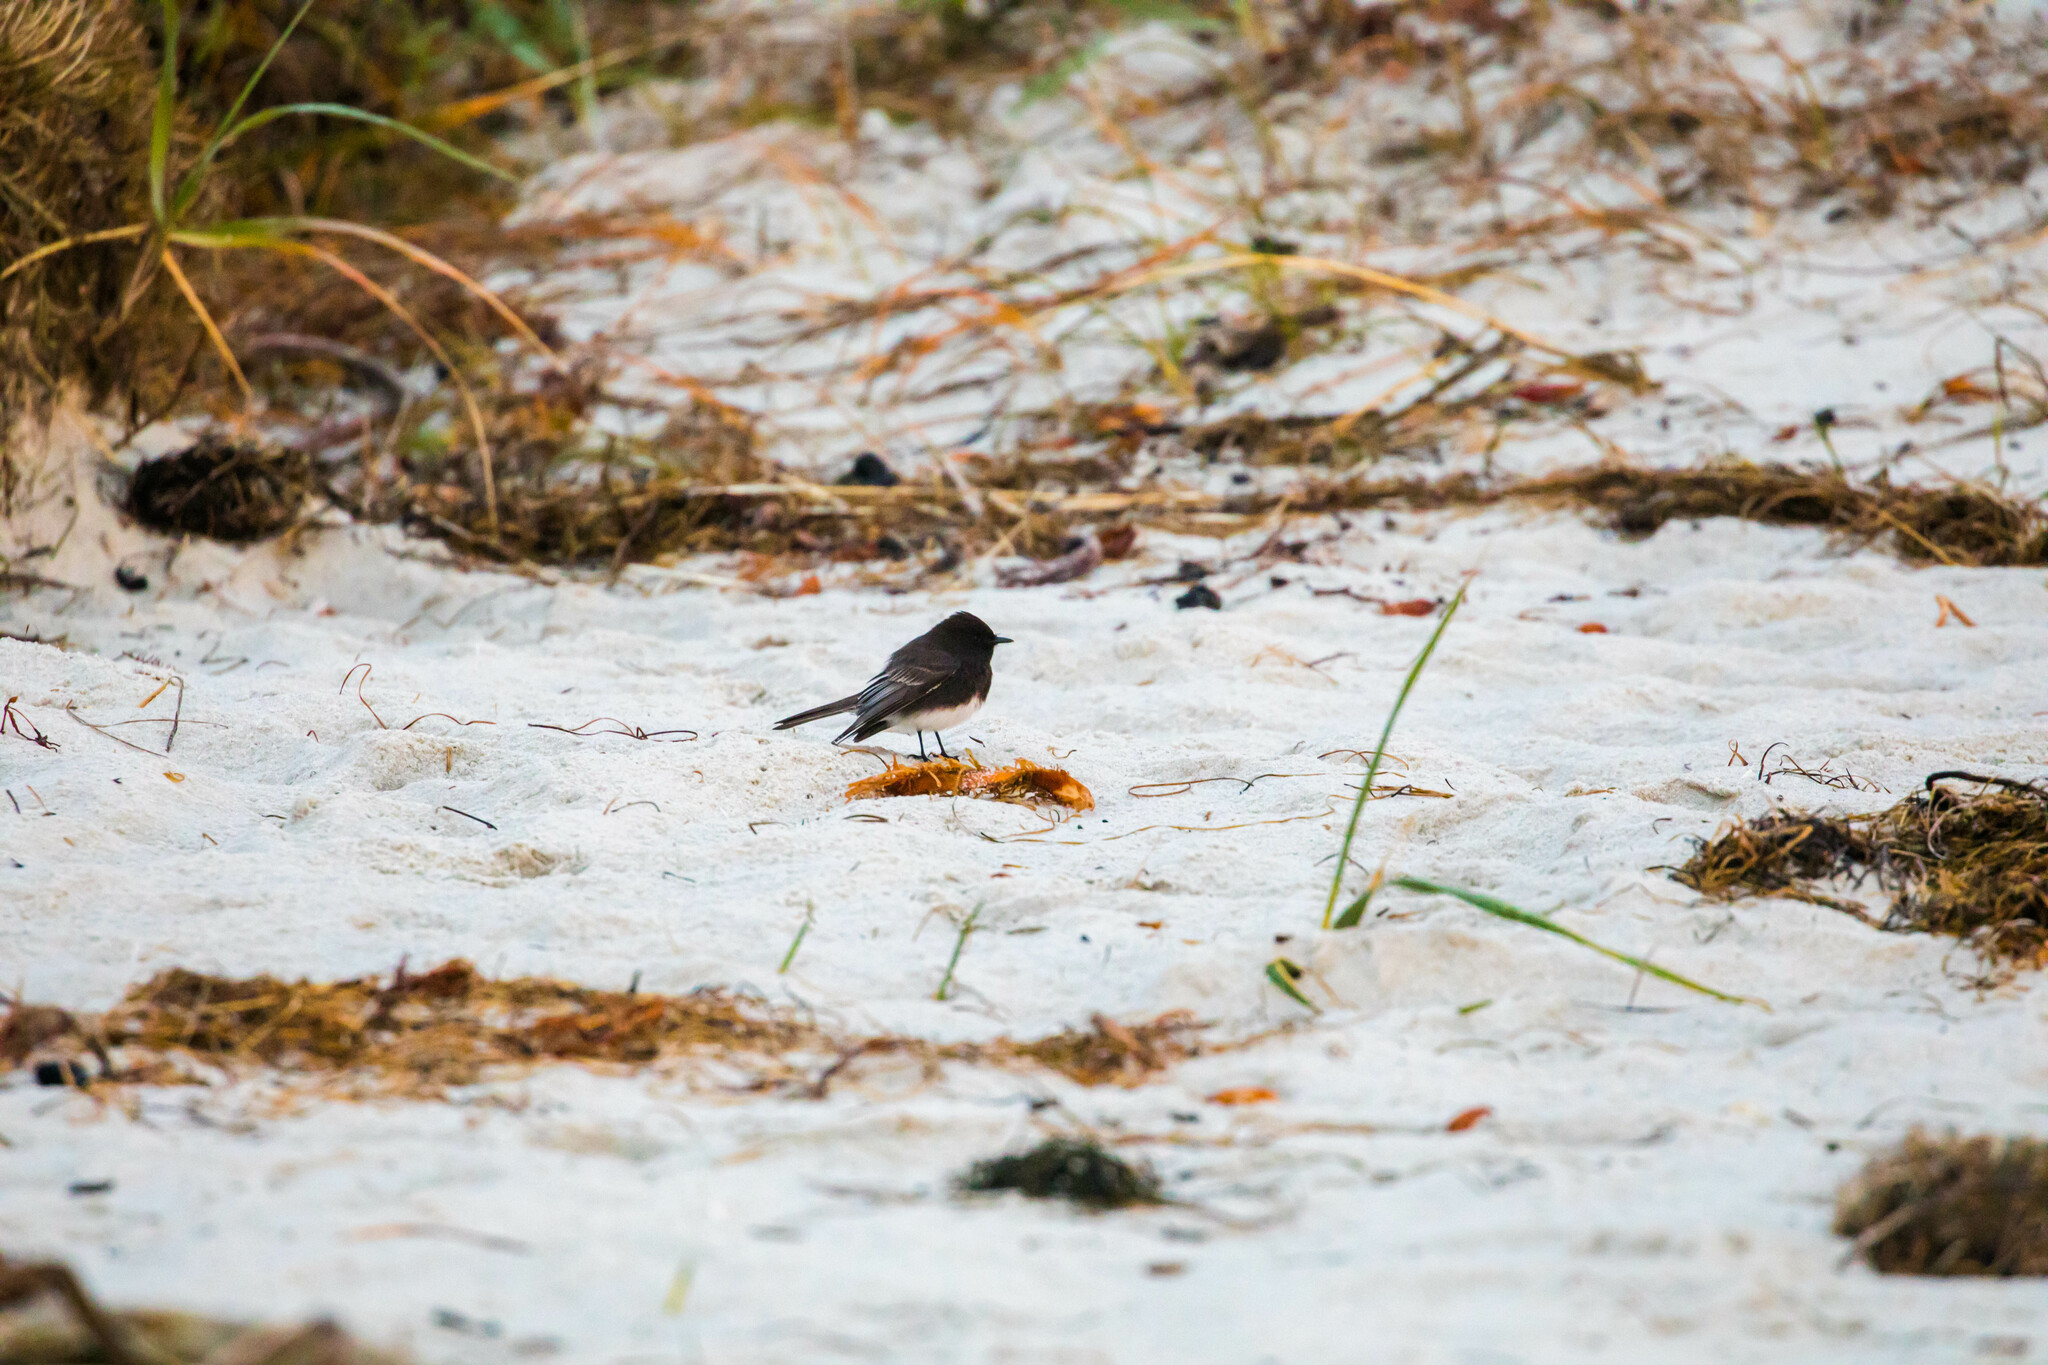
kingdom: Animalia
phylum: Chordata
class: Aves
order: Passeriformes
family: Tyrannidae
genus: Sayornis
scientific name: Sayornis nigricans
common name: Black phoebe
